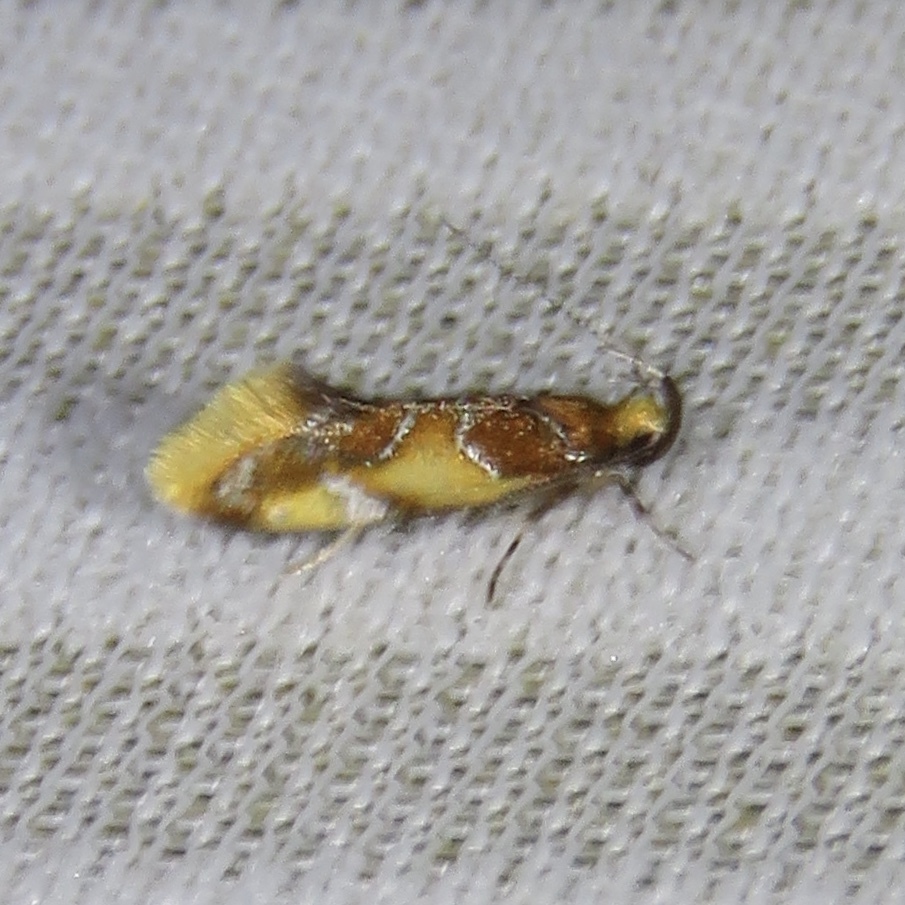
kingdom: Animalia
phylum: Arthropoda
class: Insecta
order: Lepidoptera
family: Oecophoridae
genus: Callima
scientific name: Callima argenticinctella
